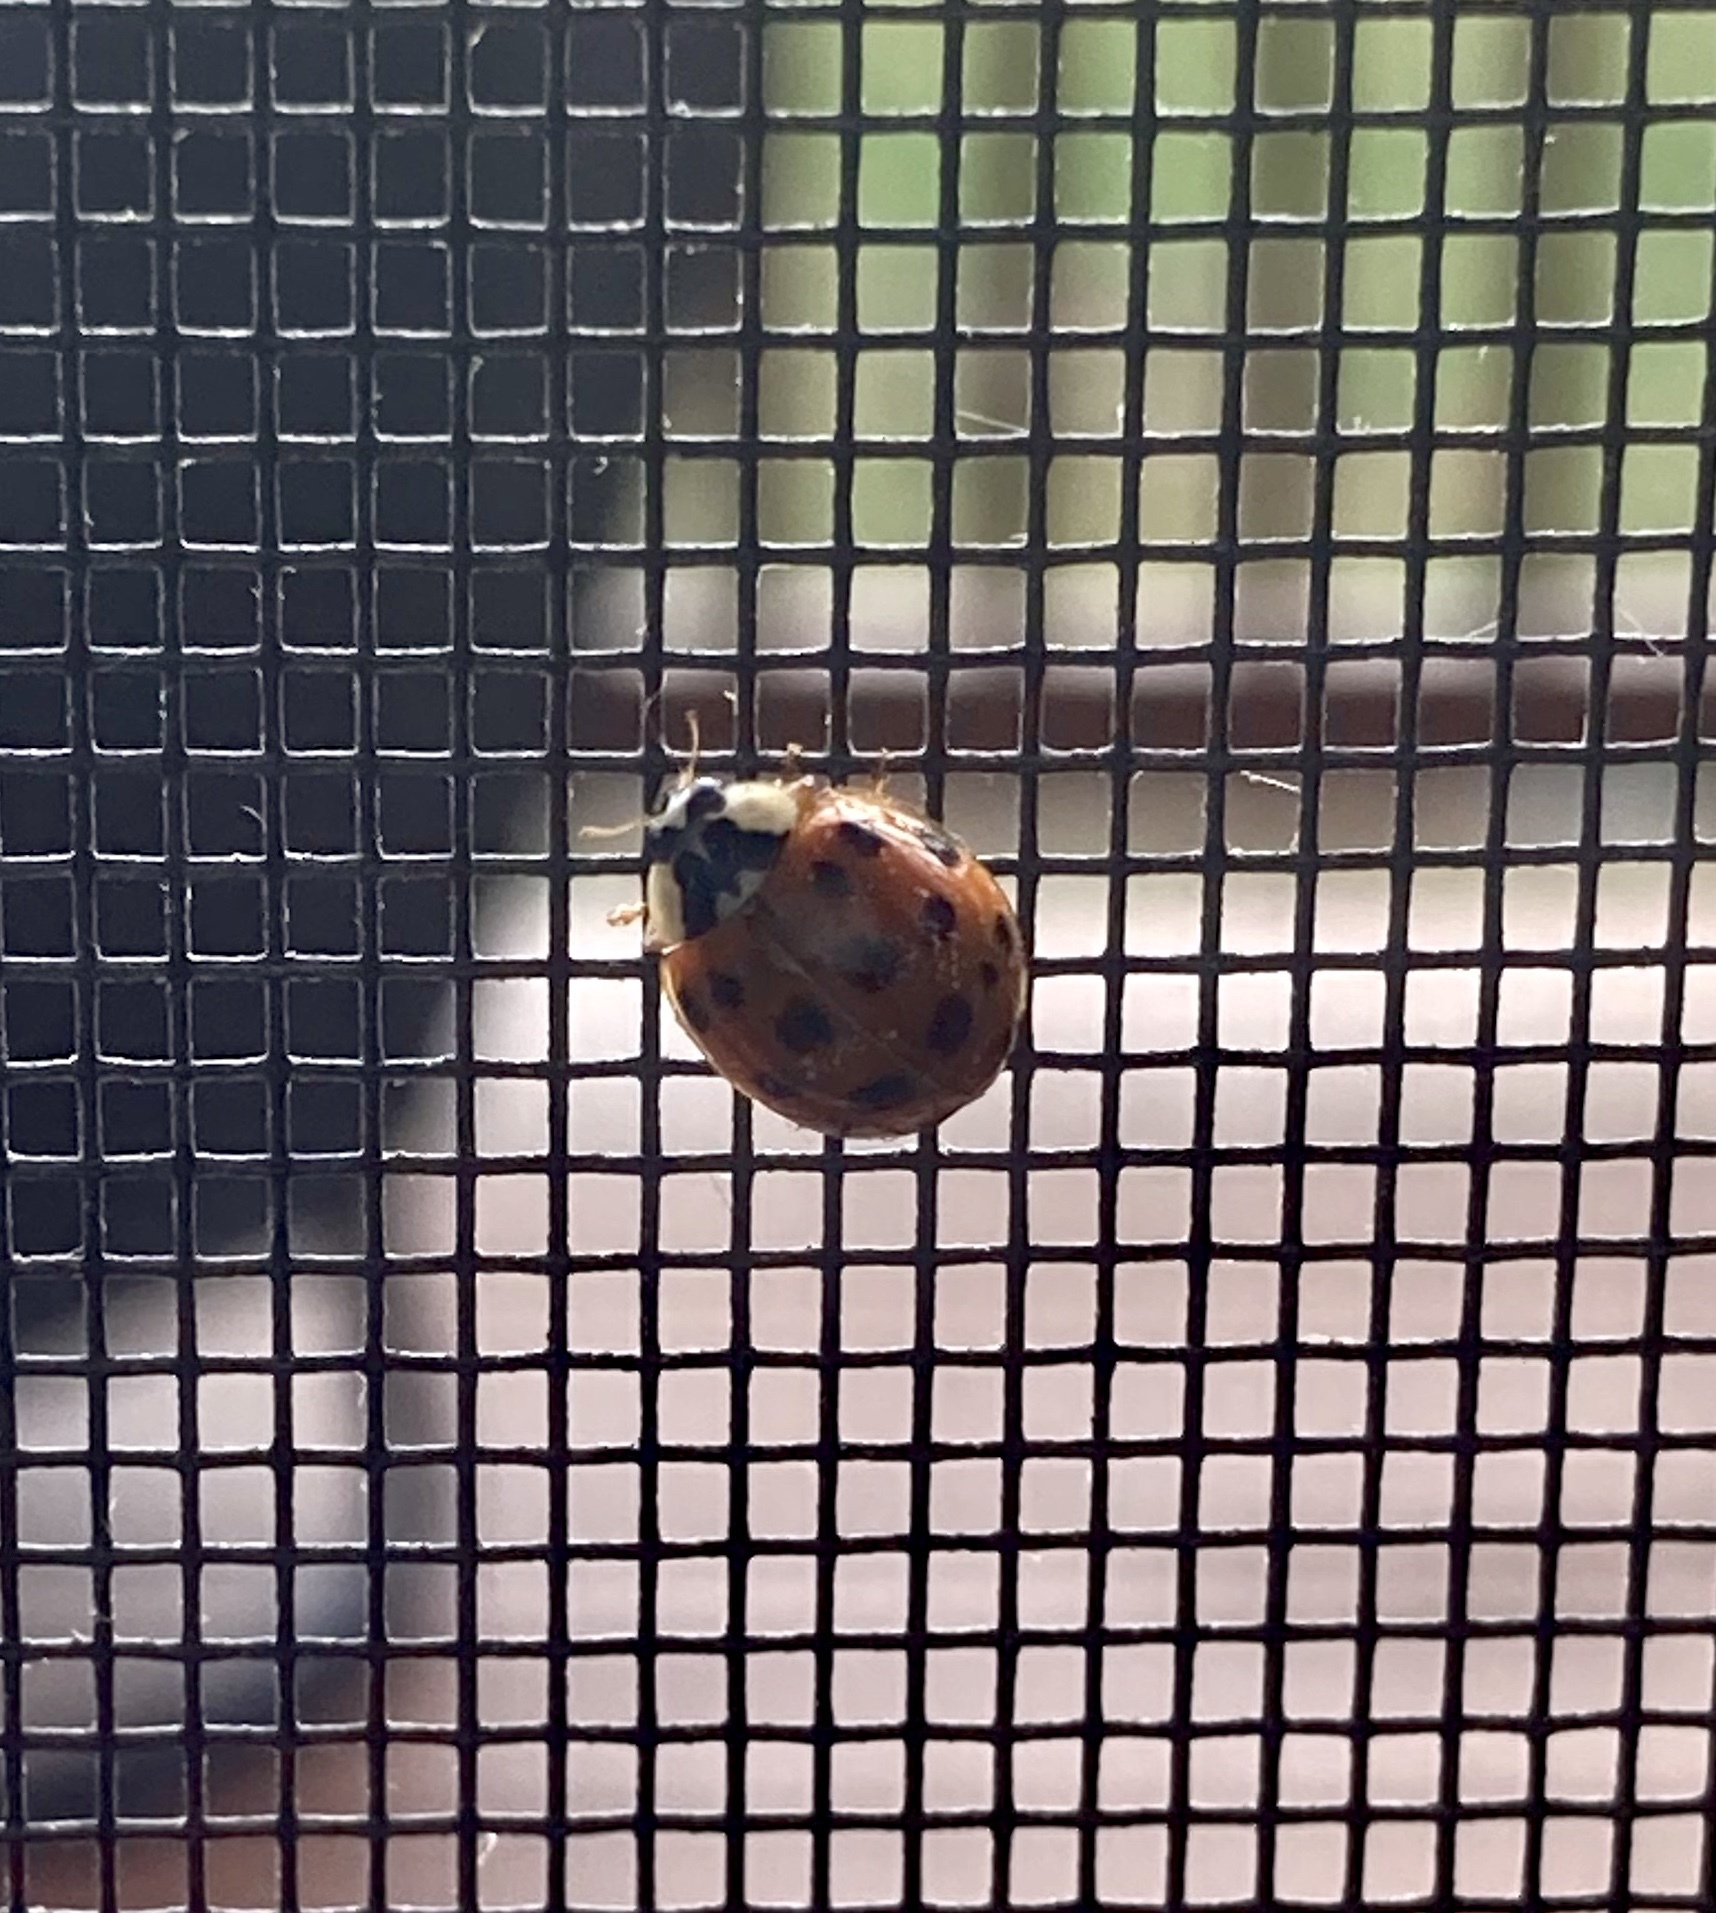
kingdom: Animalia
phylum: Arthropoda
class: Insecta
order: Coleoptera
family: Coccinellidae
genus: Harmonia
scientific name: Harmonia axyridis
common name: Harlequin ladybird
